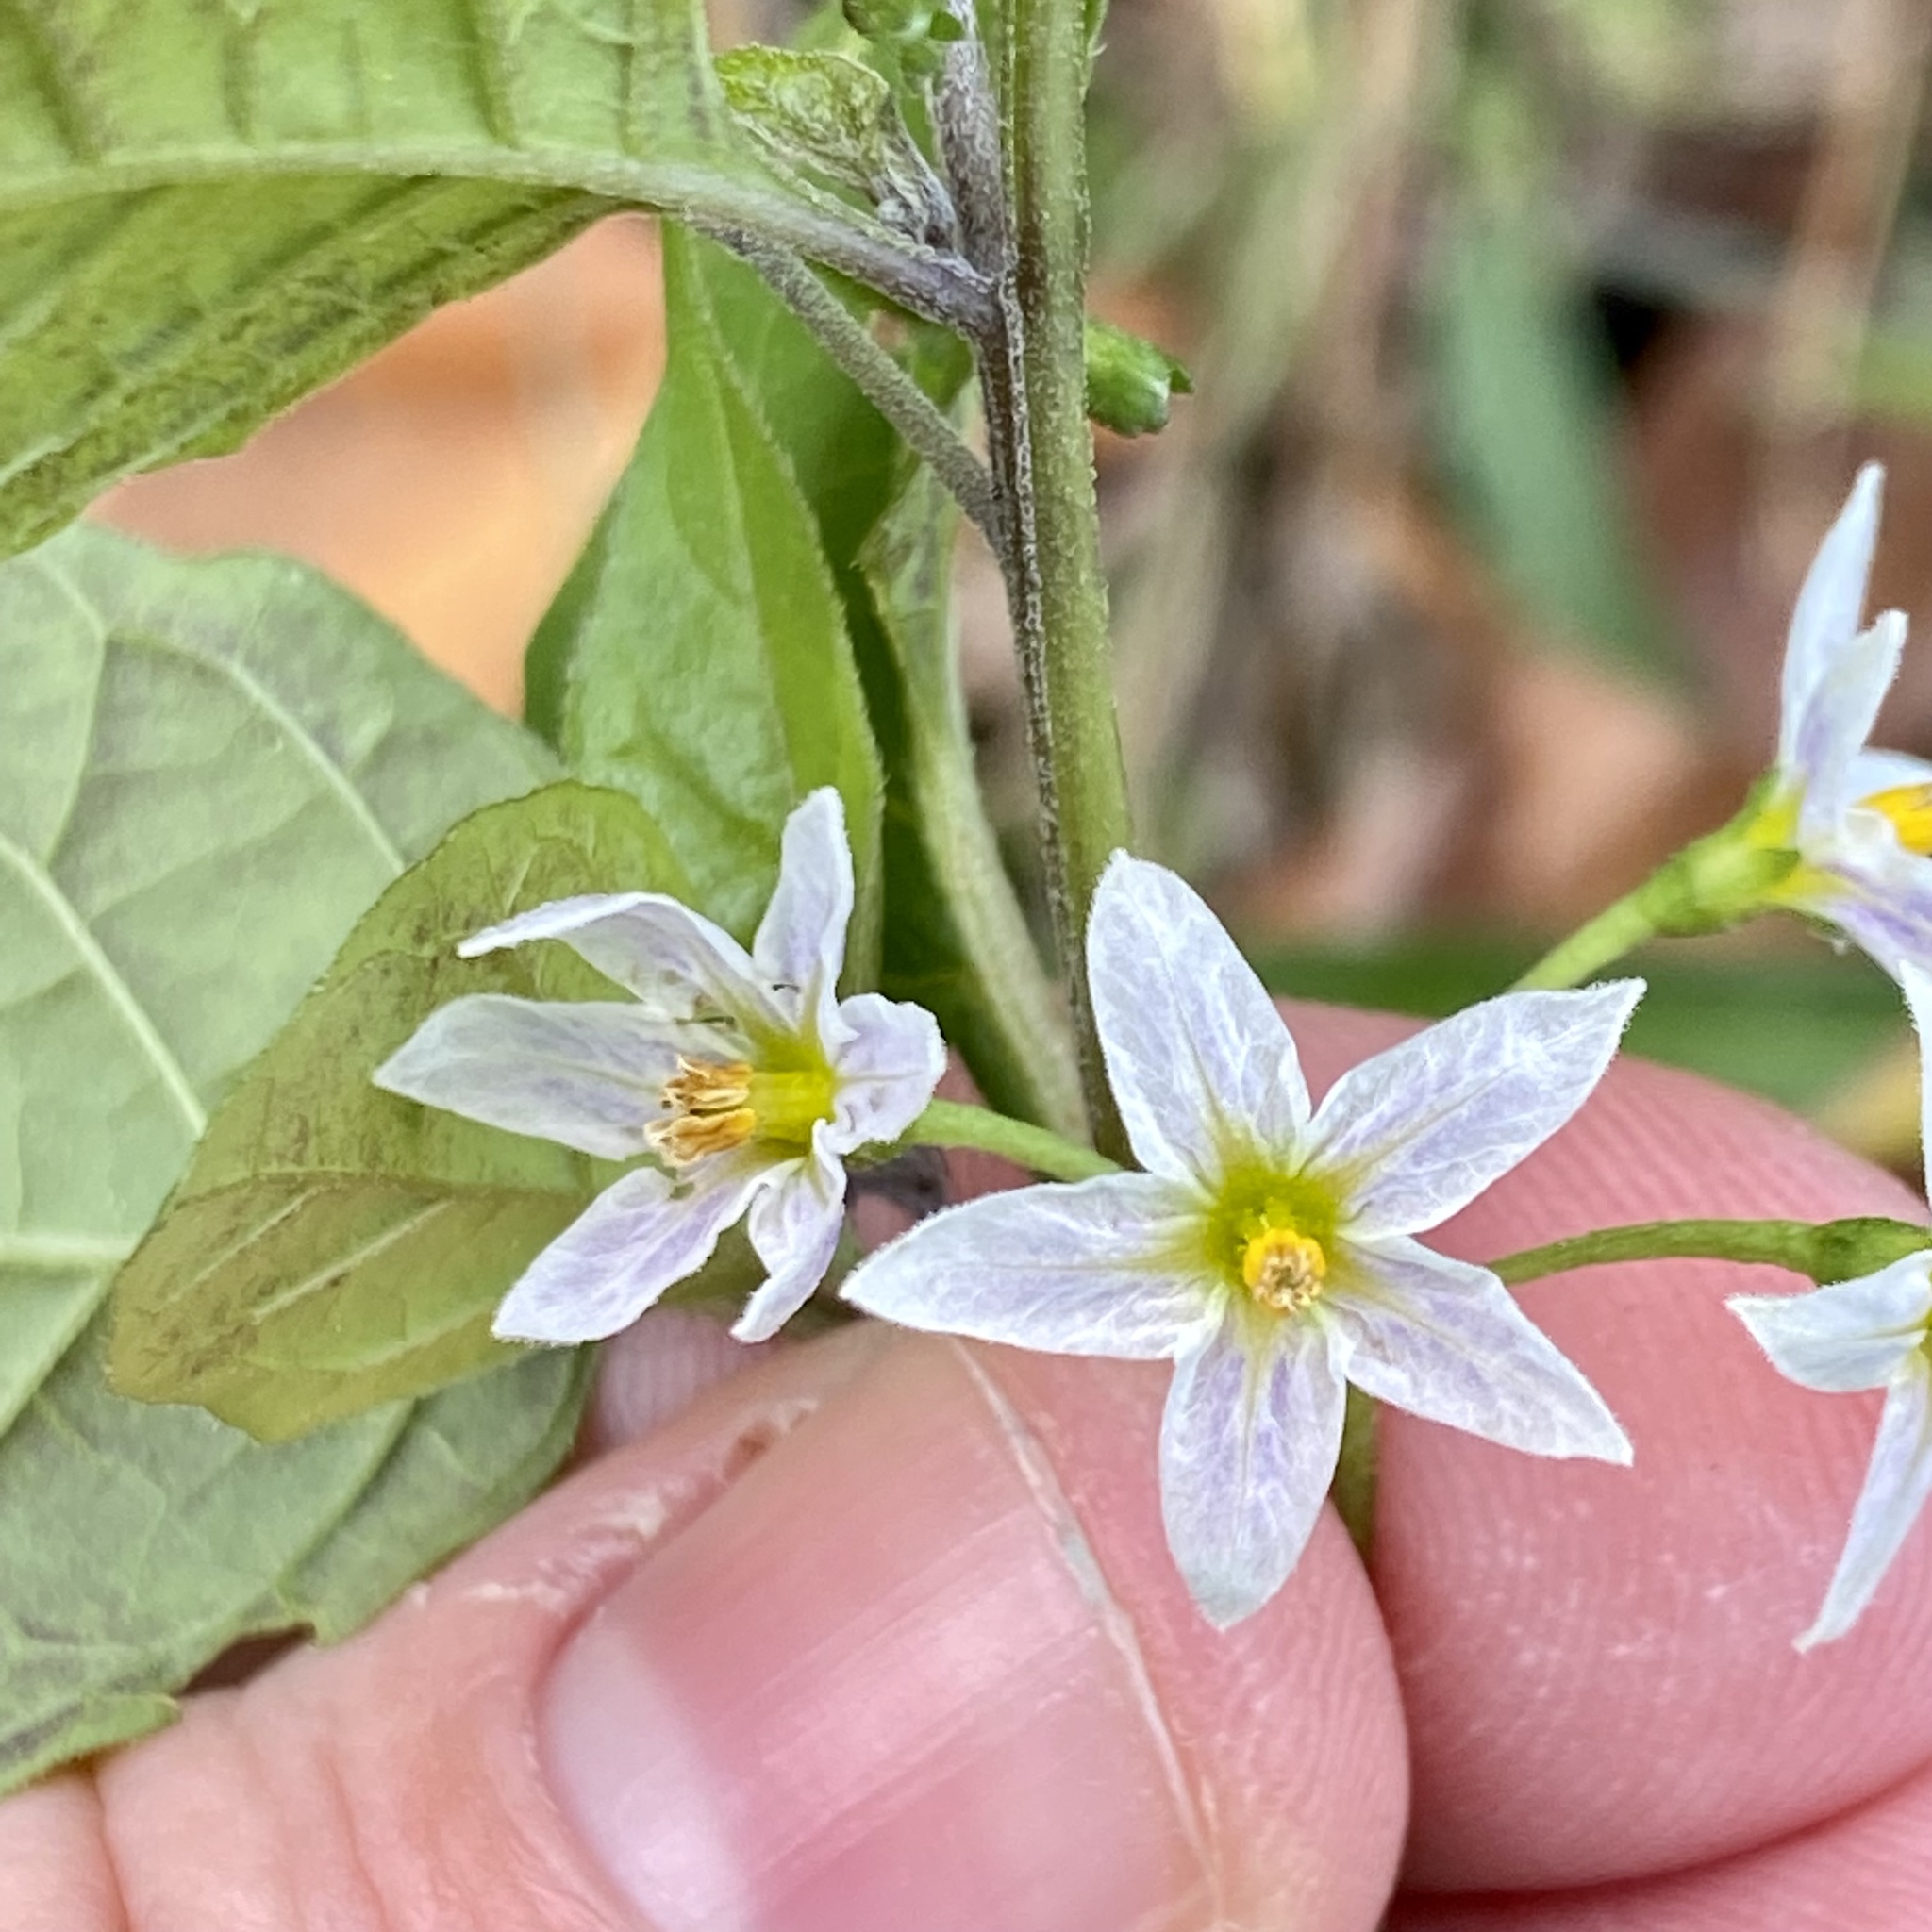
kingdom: Plantae
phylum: Tracheophyta
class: Magnoliopsida
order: Solanales
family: Solanaceae
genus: Solanum
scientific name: Solanum emulans
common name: Eastern black nightshade
